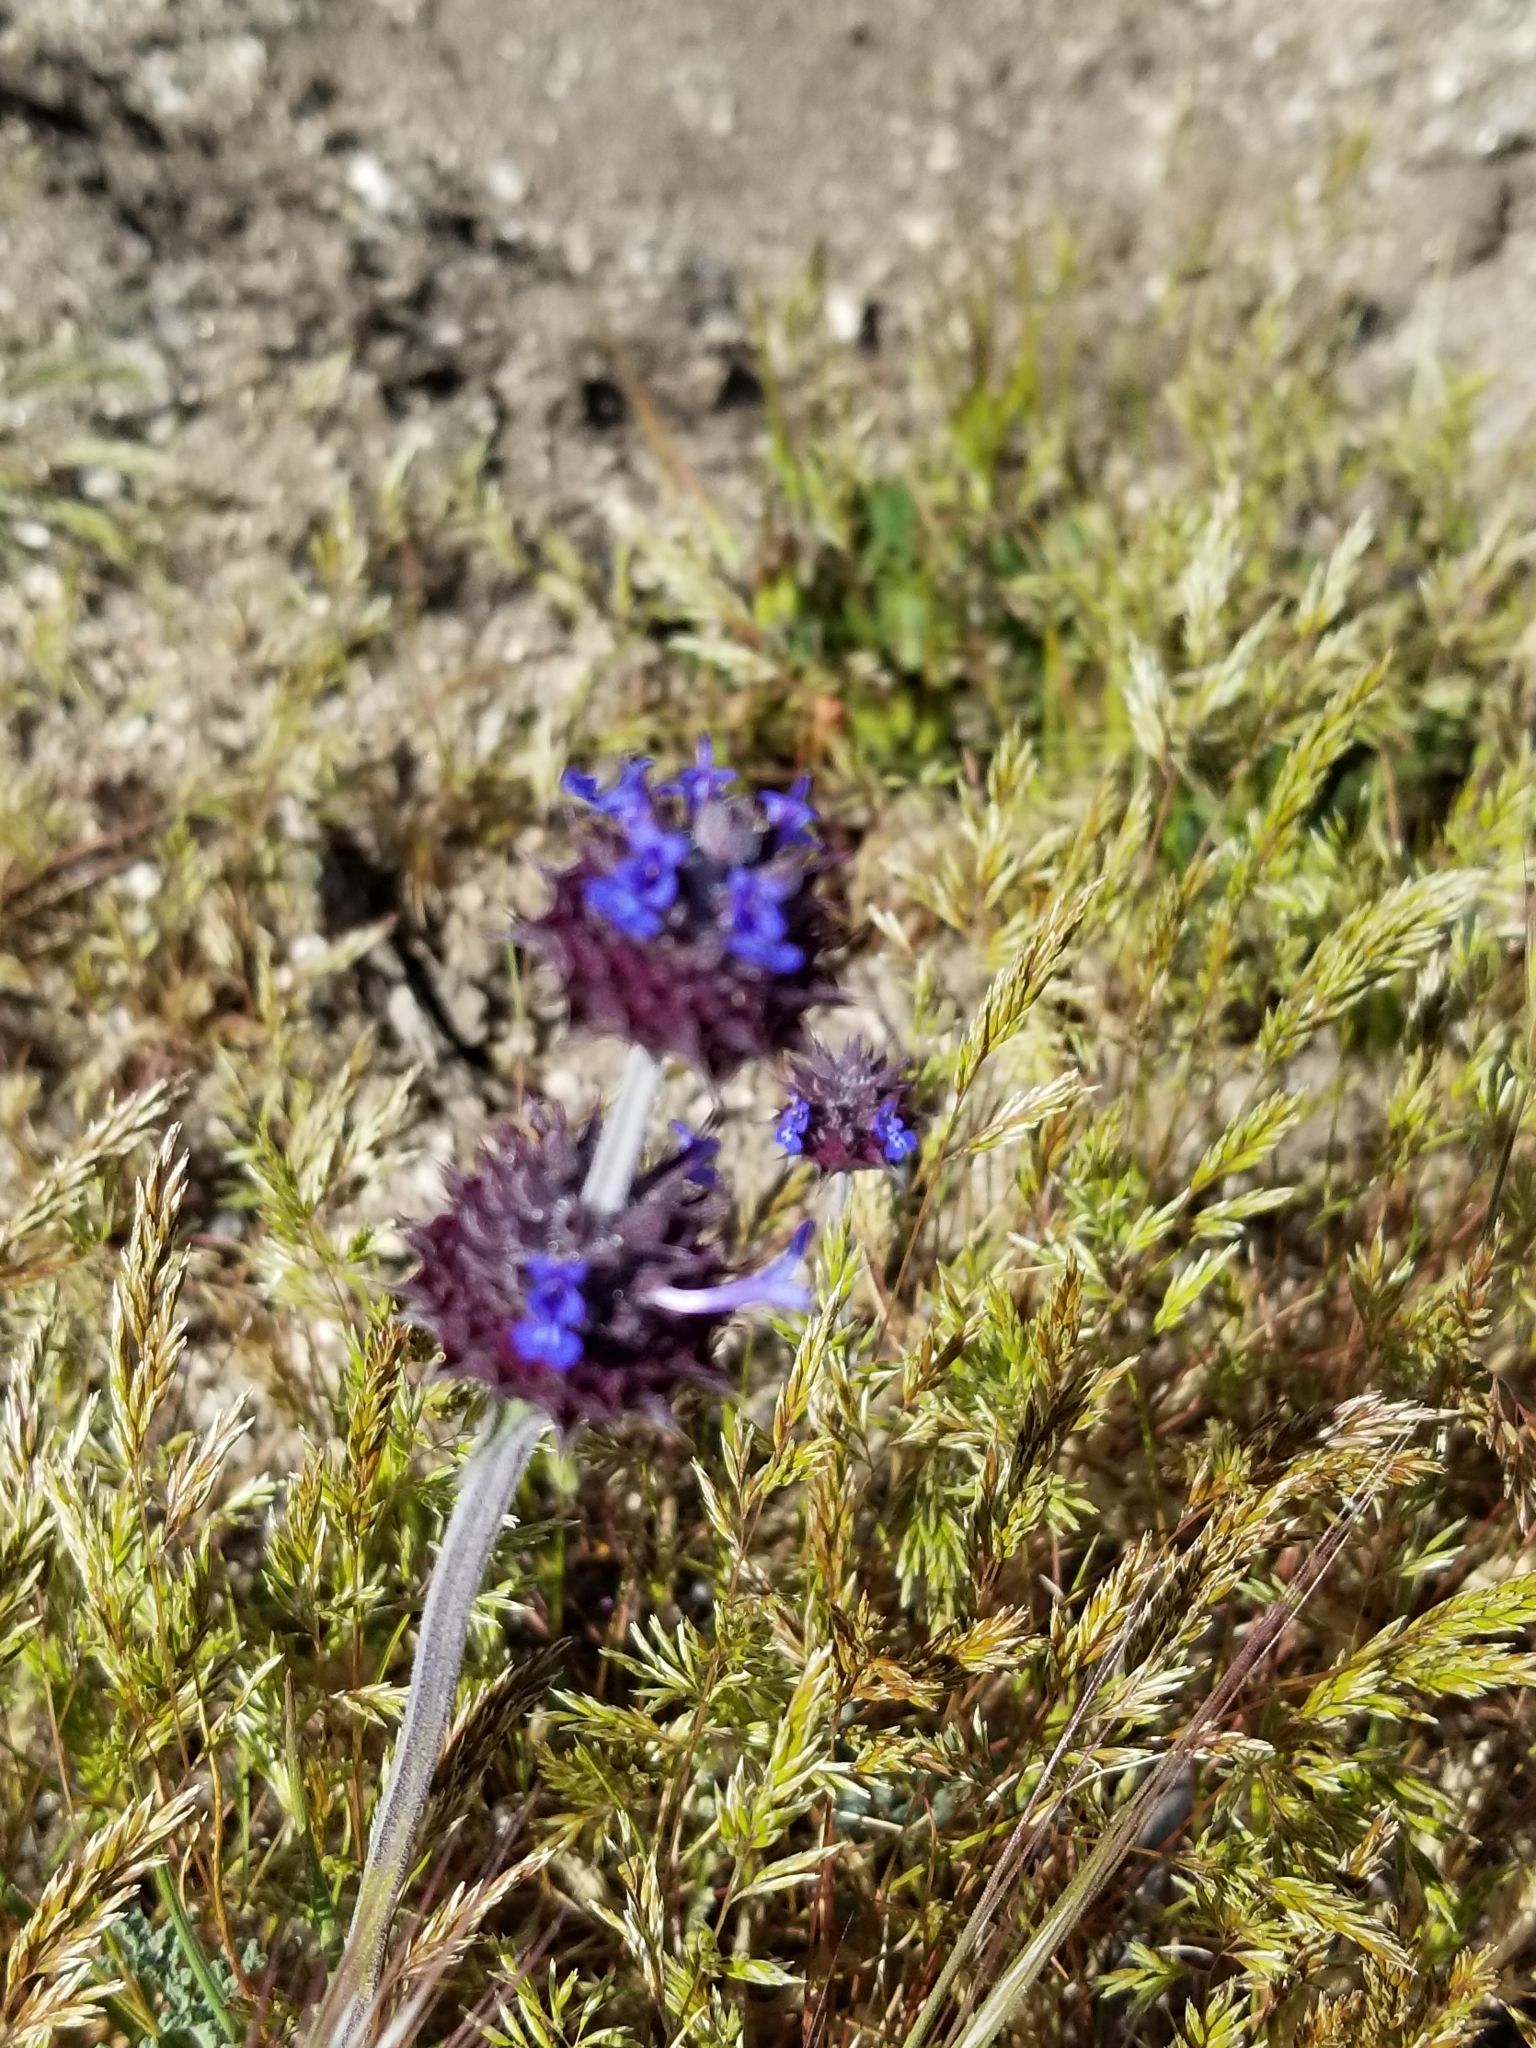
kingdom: Plantae
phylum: Tracheophyta
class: Magnoliopsida
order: Lamiales
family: Lamiaceae
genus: Salvia
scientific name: Salvia columbariae
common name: Chia
